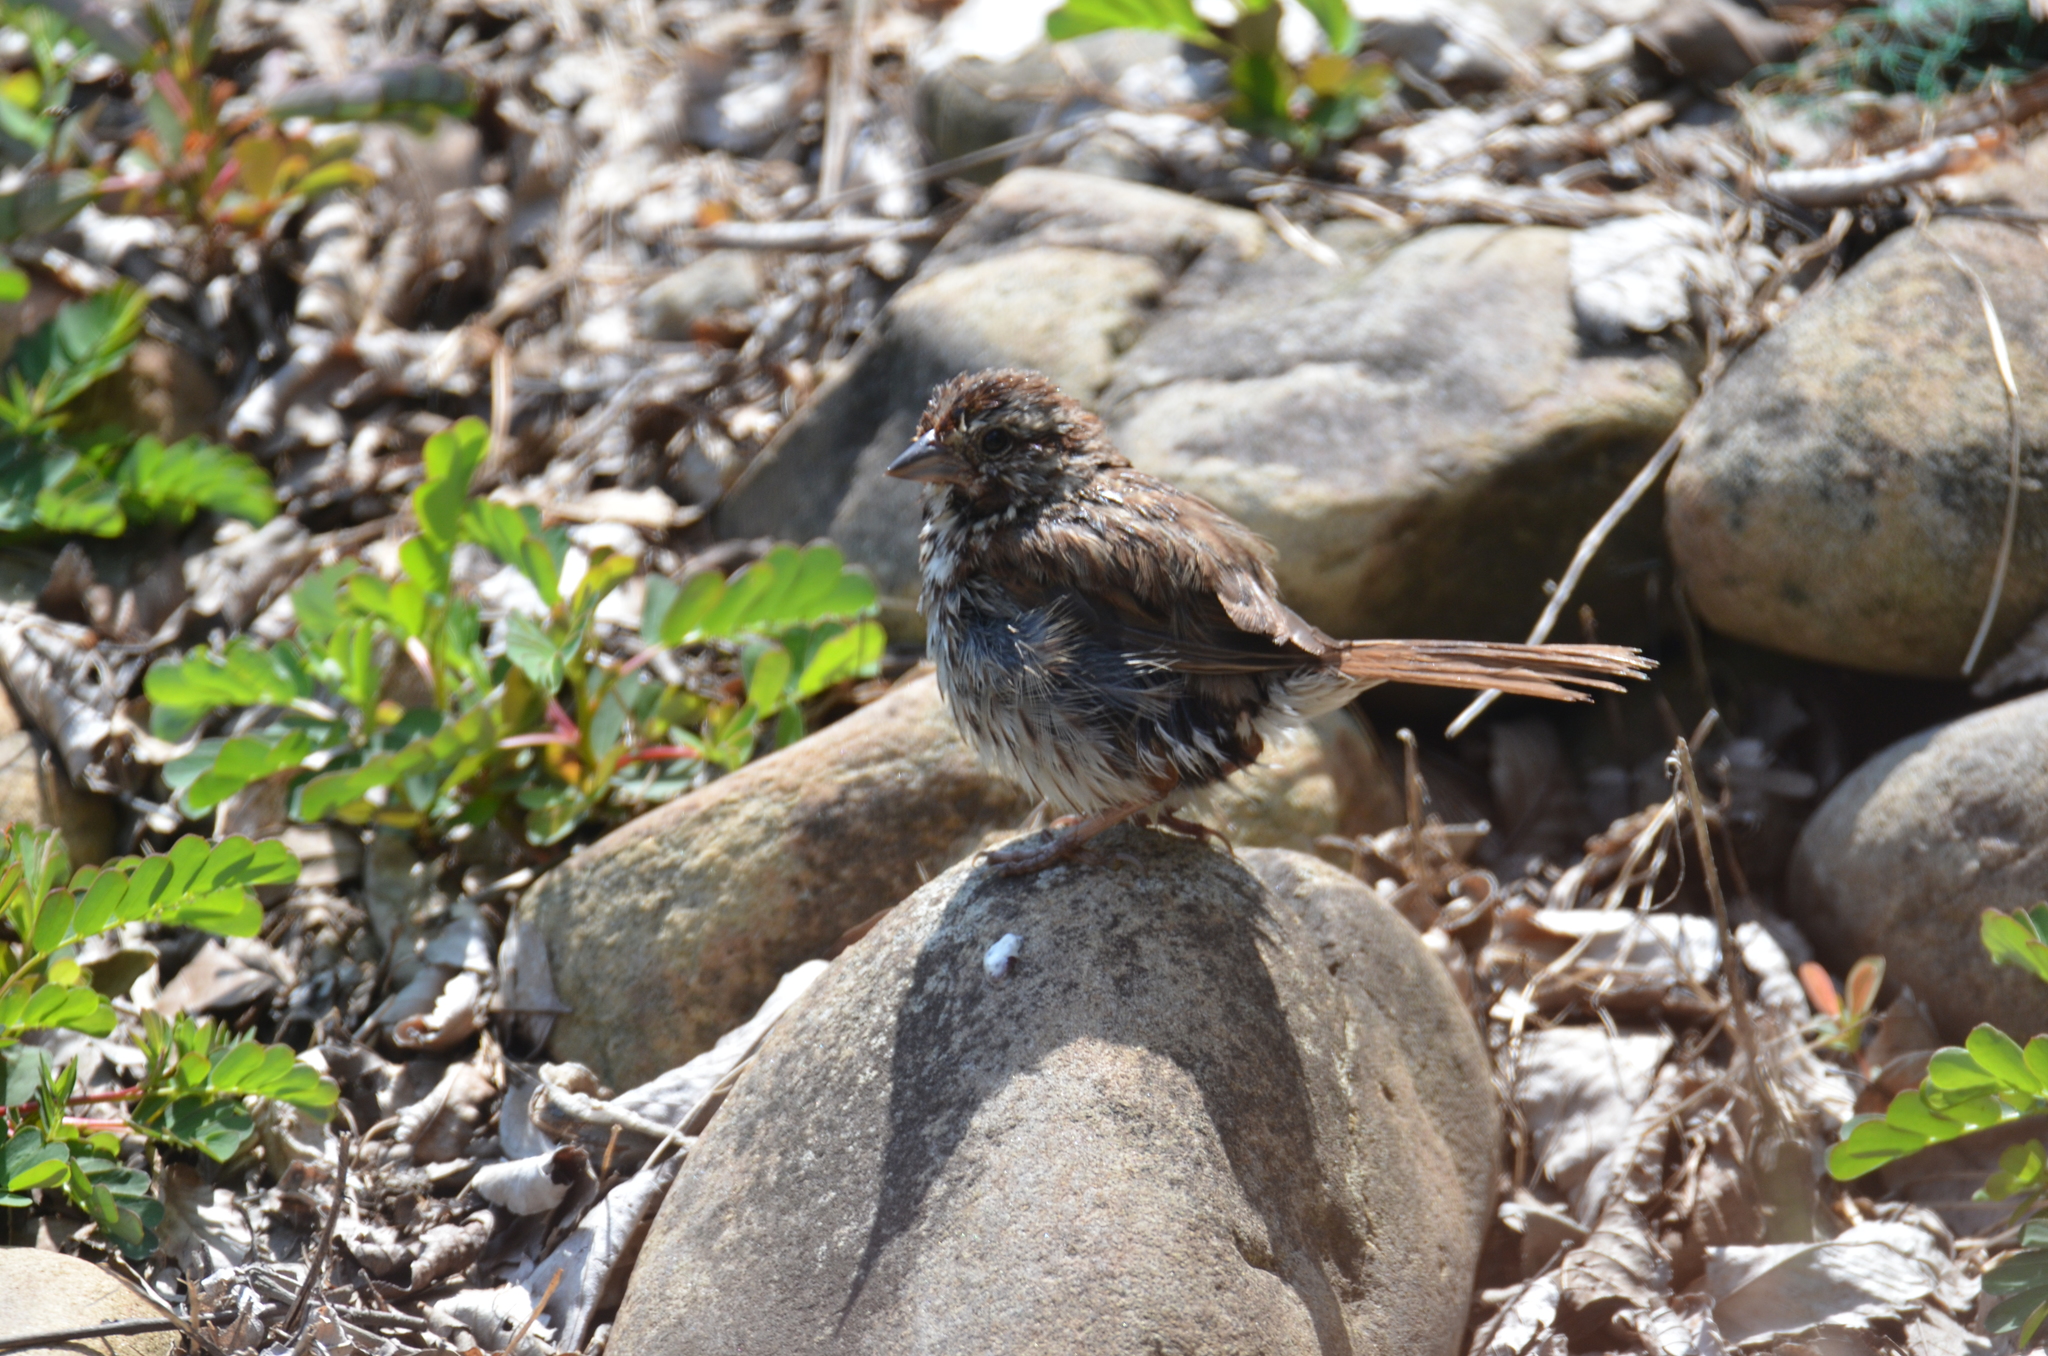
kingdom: Animalia
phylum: Chordata
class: Aves
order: Passeriformes
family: Passerellidae
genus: Melospiza
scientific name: Melospiza melodia
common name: Song sparrow
